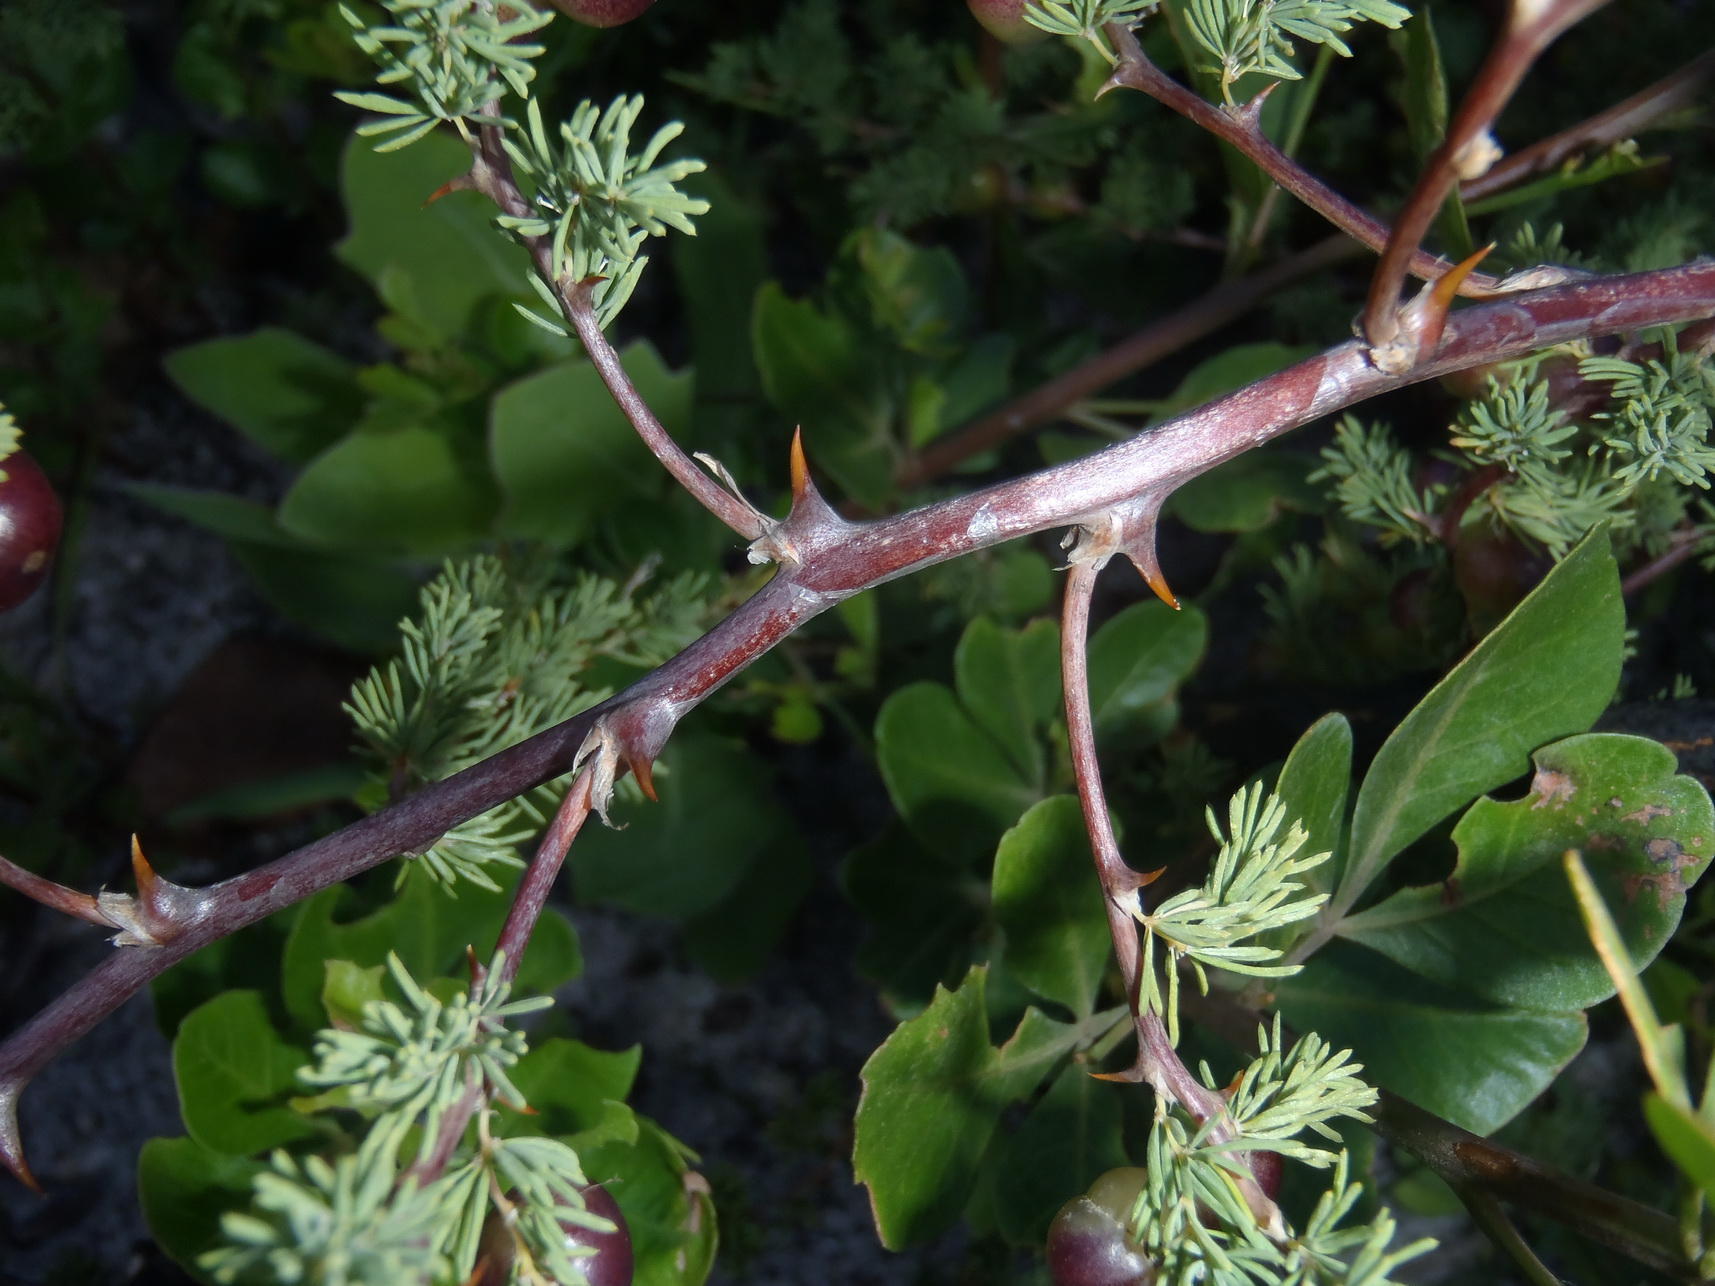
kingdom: Plantae
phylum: Tracheophyta
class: Liliopsida
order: Asparagales
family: Asparagaceae
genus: Asparagus
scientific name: Asparagus rubicundus
